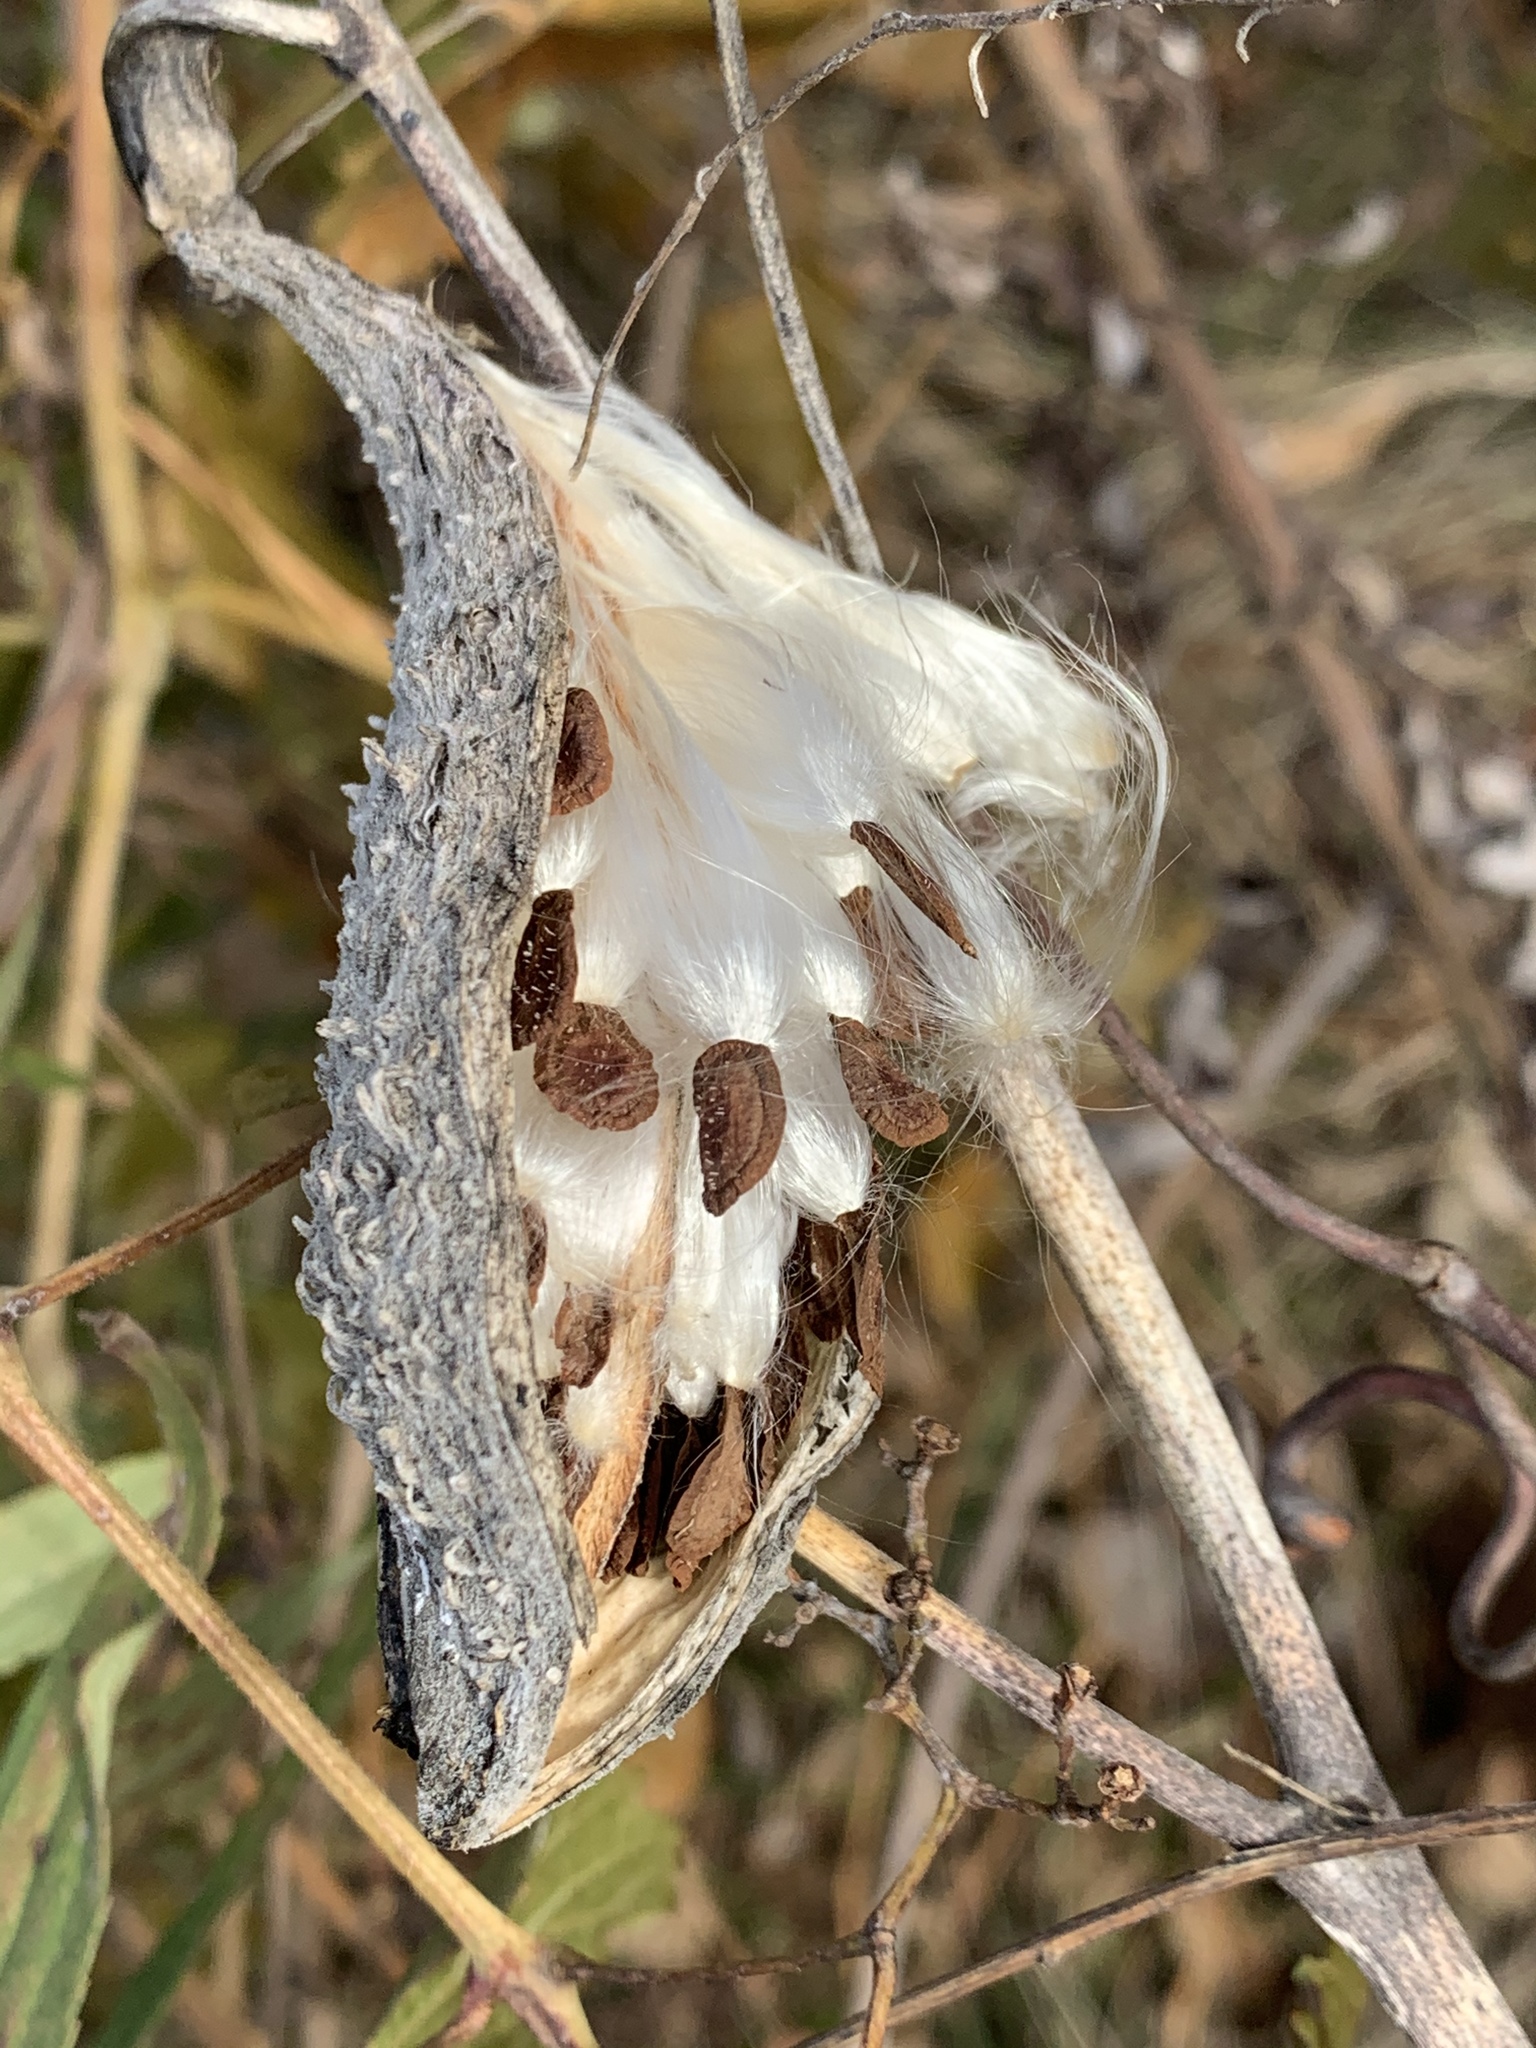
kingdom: Plantae
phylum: Tracheophyta
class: Magnoliopsida
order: Gentianales
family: Apocynaceae
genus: Asclepias
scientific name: Asclepias syriaca
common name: Common milkweed
